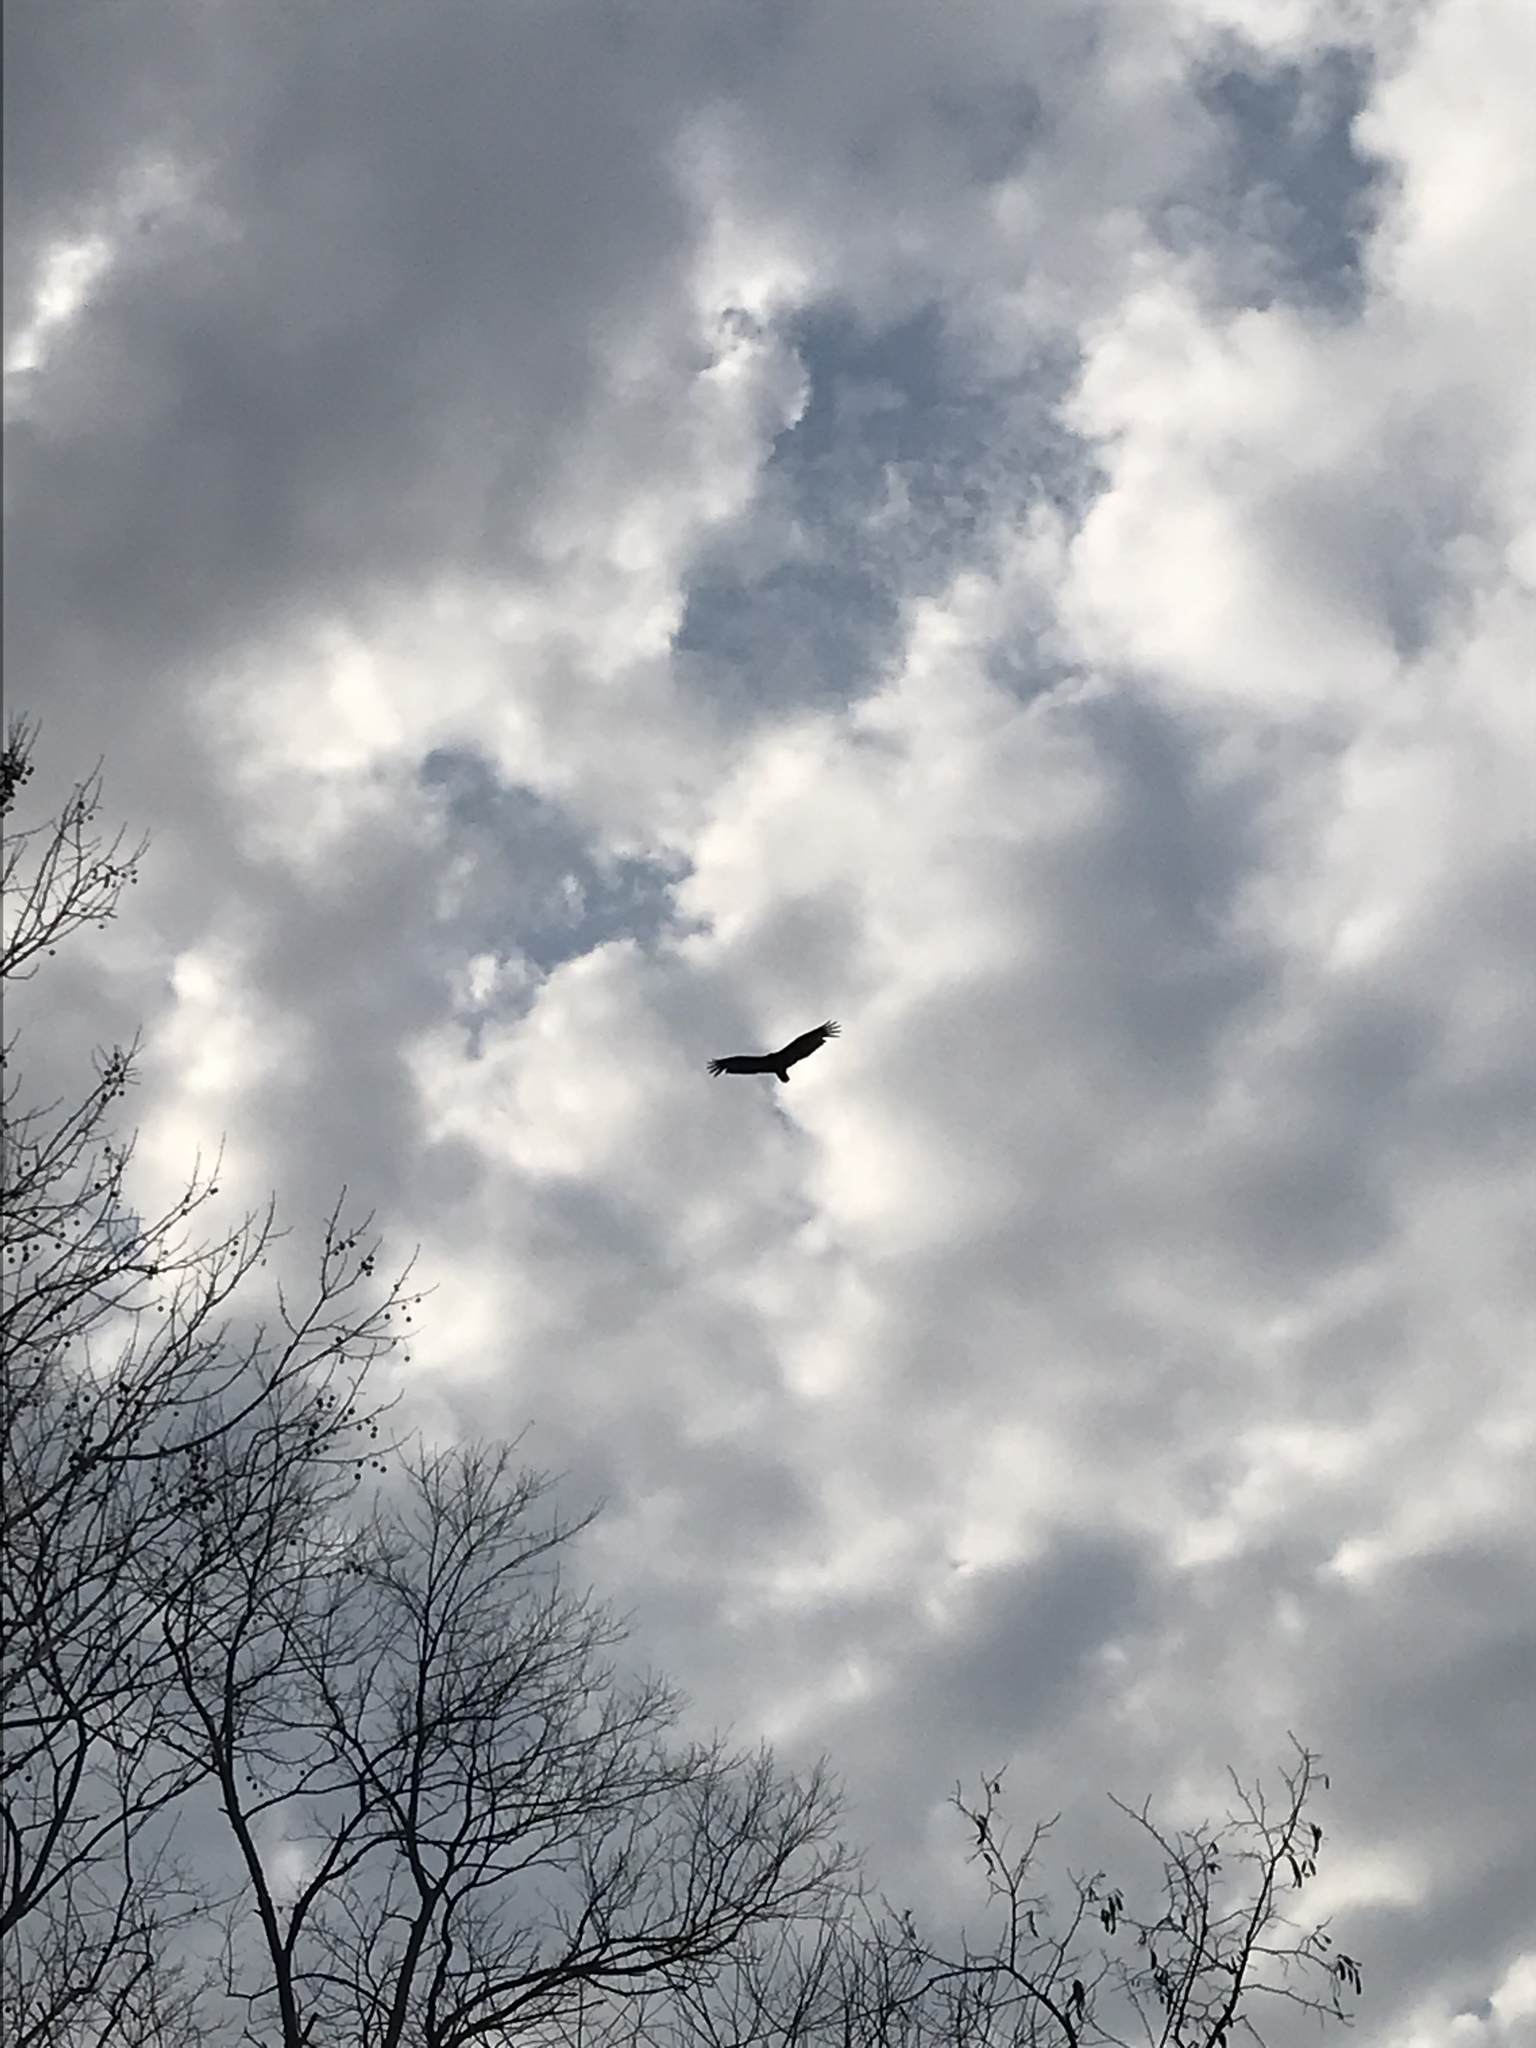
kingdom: Animalia
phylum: Chordata
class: Aves
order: Accipitriformes
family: Cathartidae
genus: Cathartes
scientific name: Cathartes aura
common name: Turkey vulture
